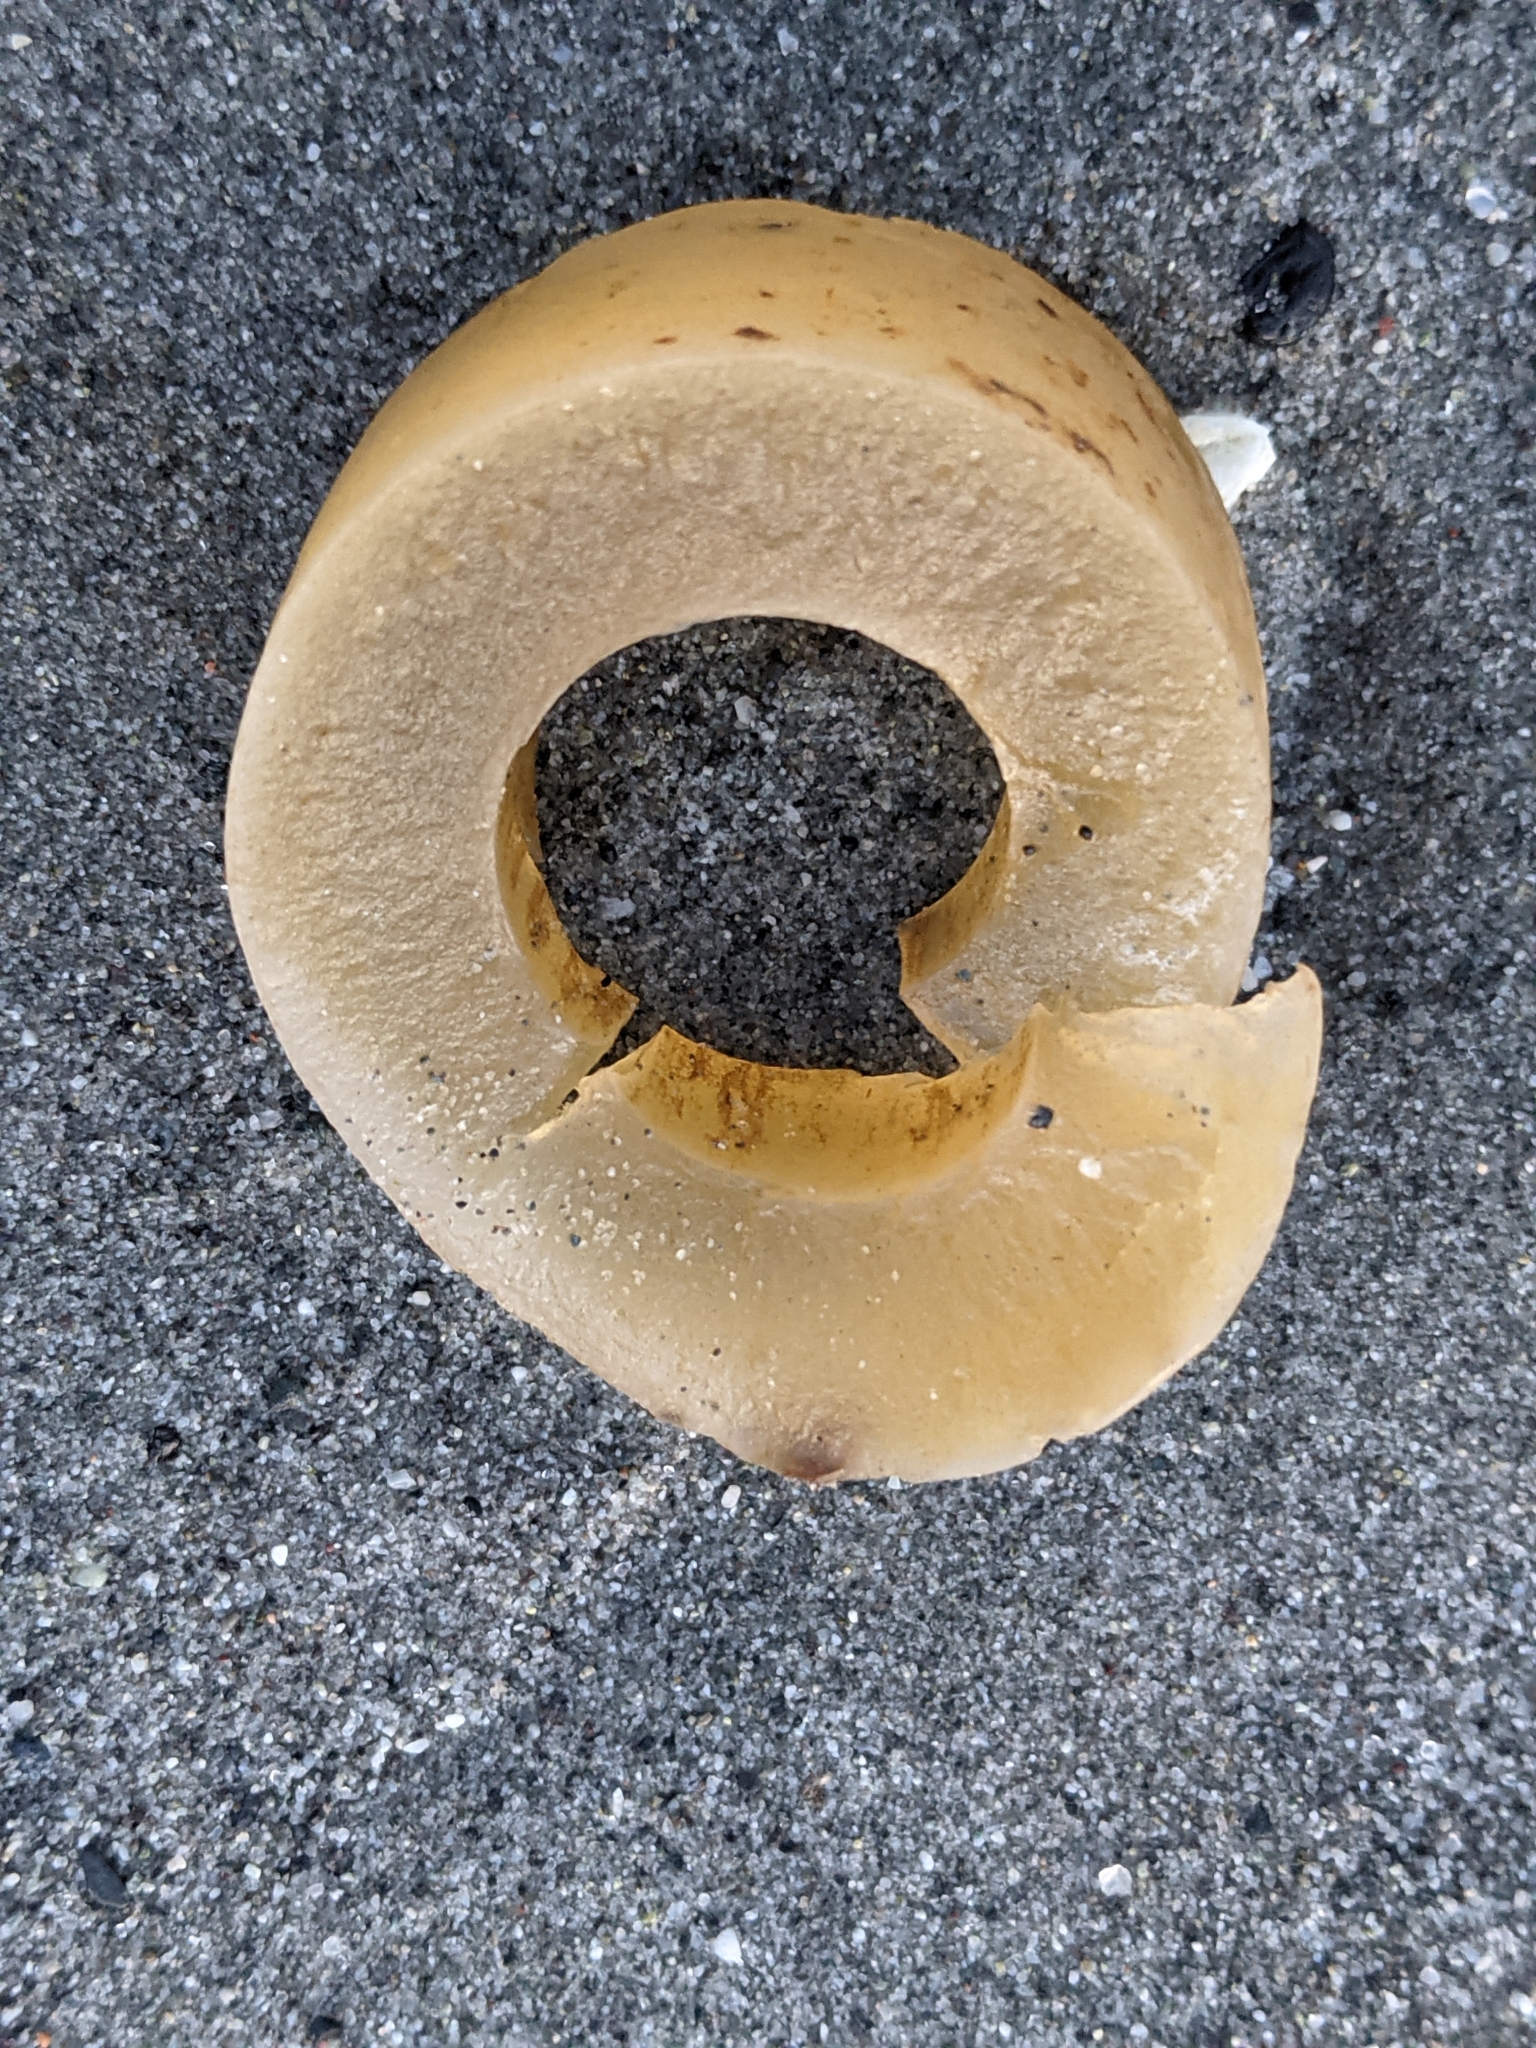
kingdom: Chromista
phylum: Ochrophyta
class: Phaeophyceae
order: Laminariales
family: Laminariaceae
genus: Nereocystis
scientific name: Nereocystis luetkeana
